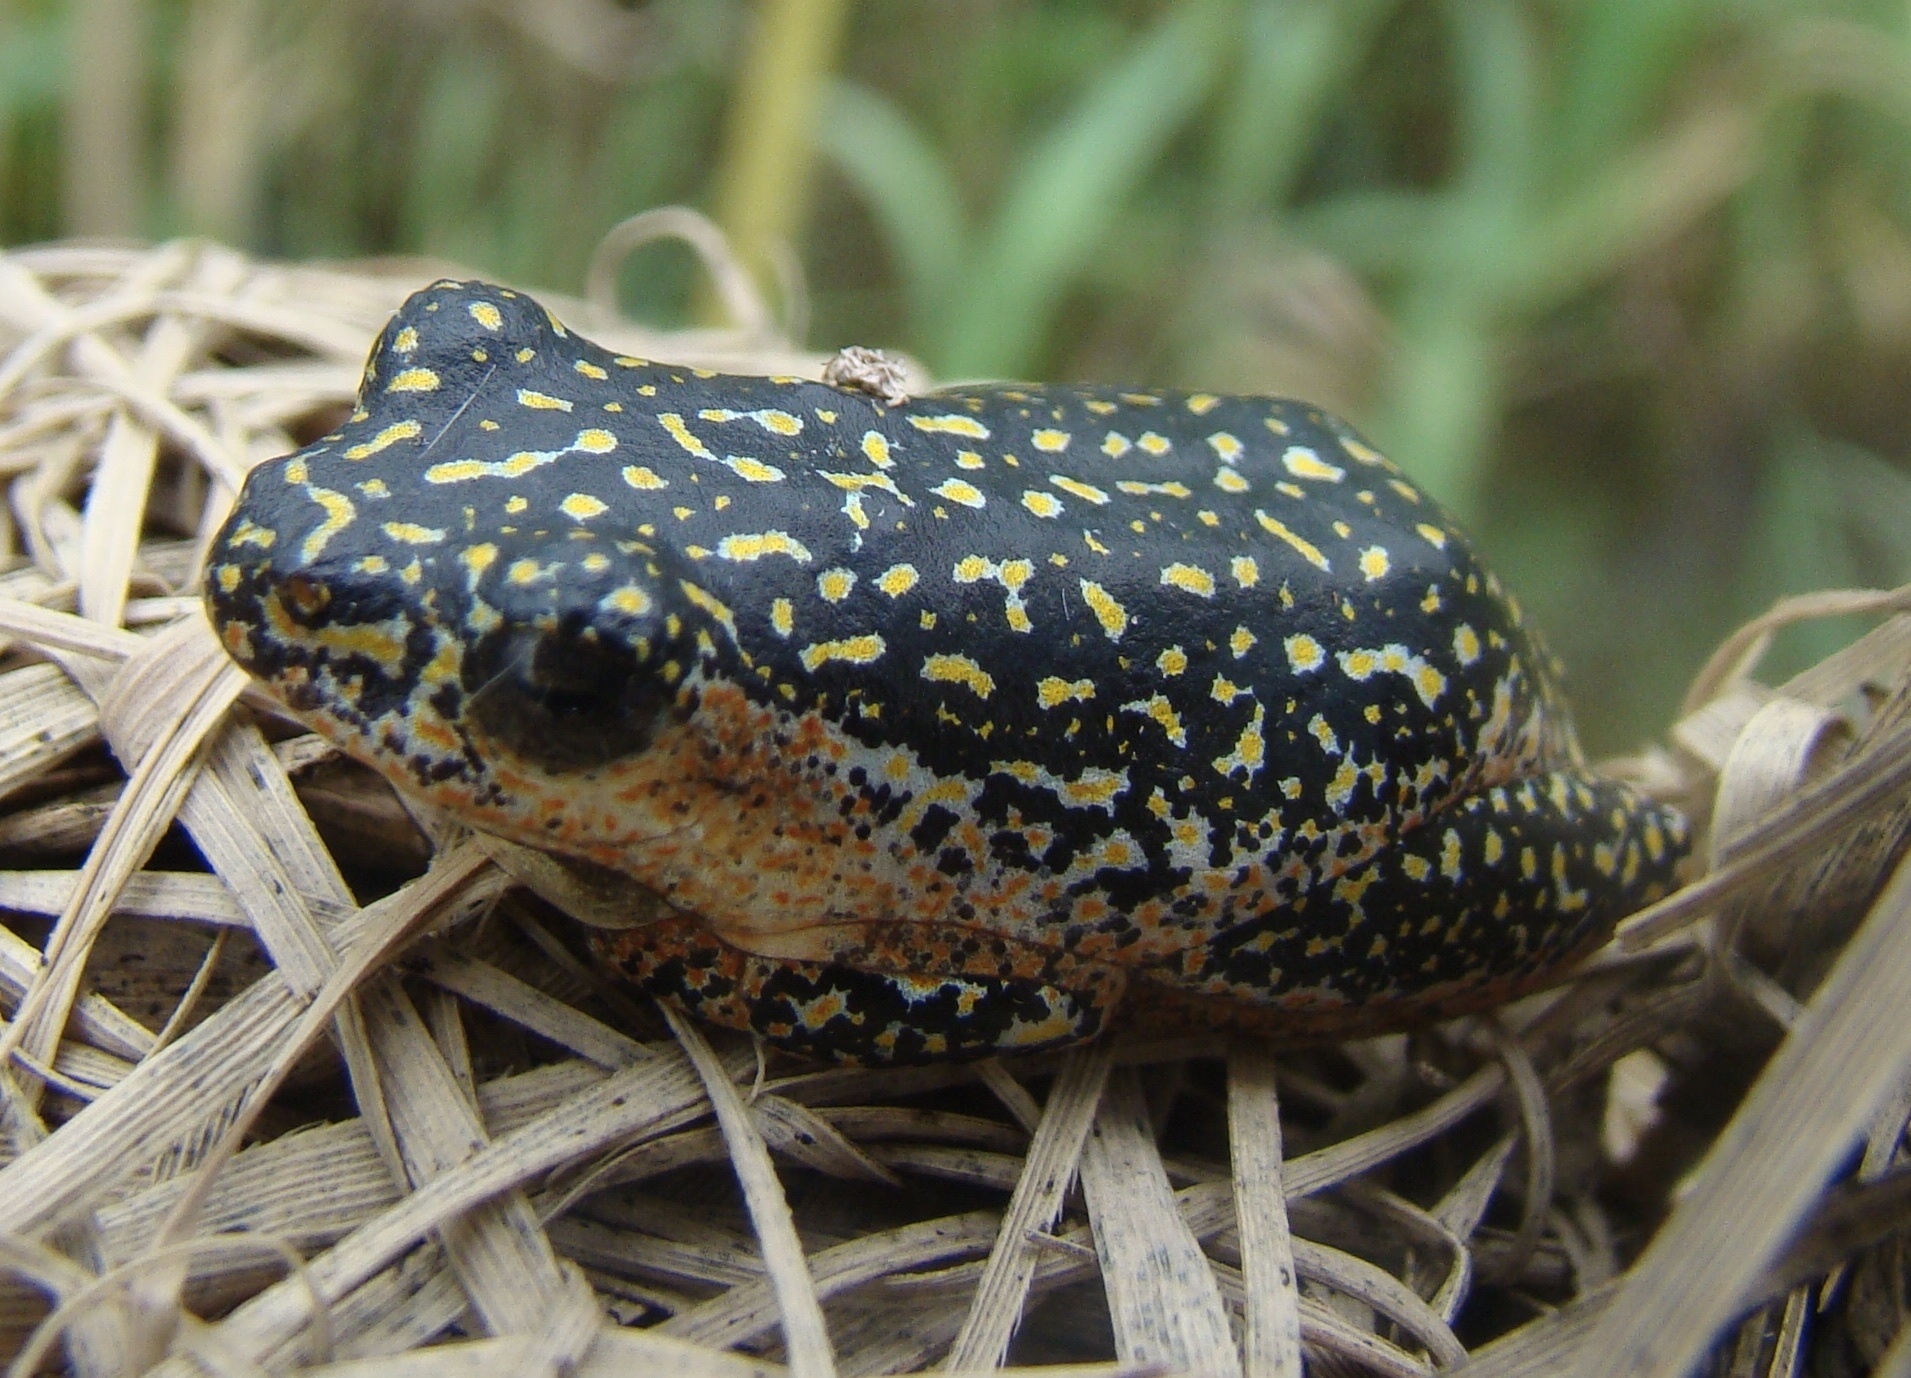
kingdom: Animalia
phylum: Chordata
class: Amphibia
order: Anura
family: Hyperoliidae
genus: Hyperolius
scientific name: Hyperolius marmoratus
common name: Painted reed frog
